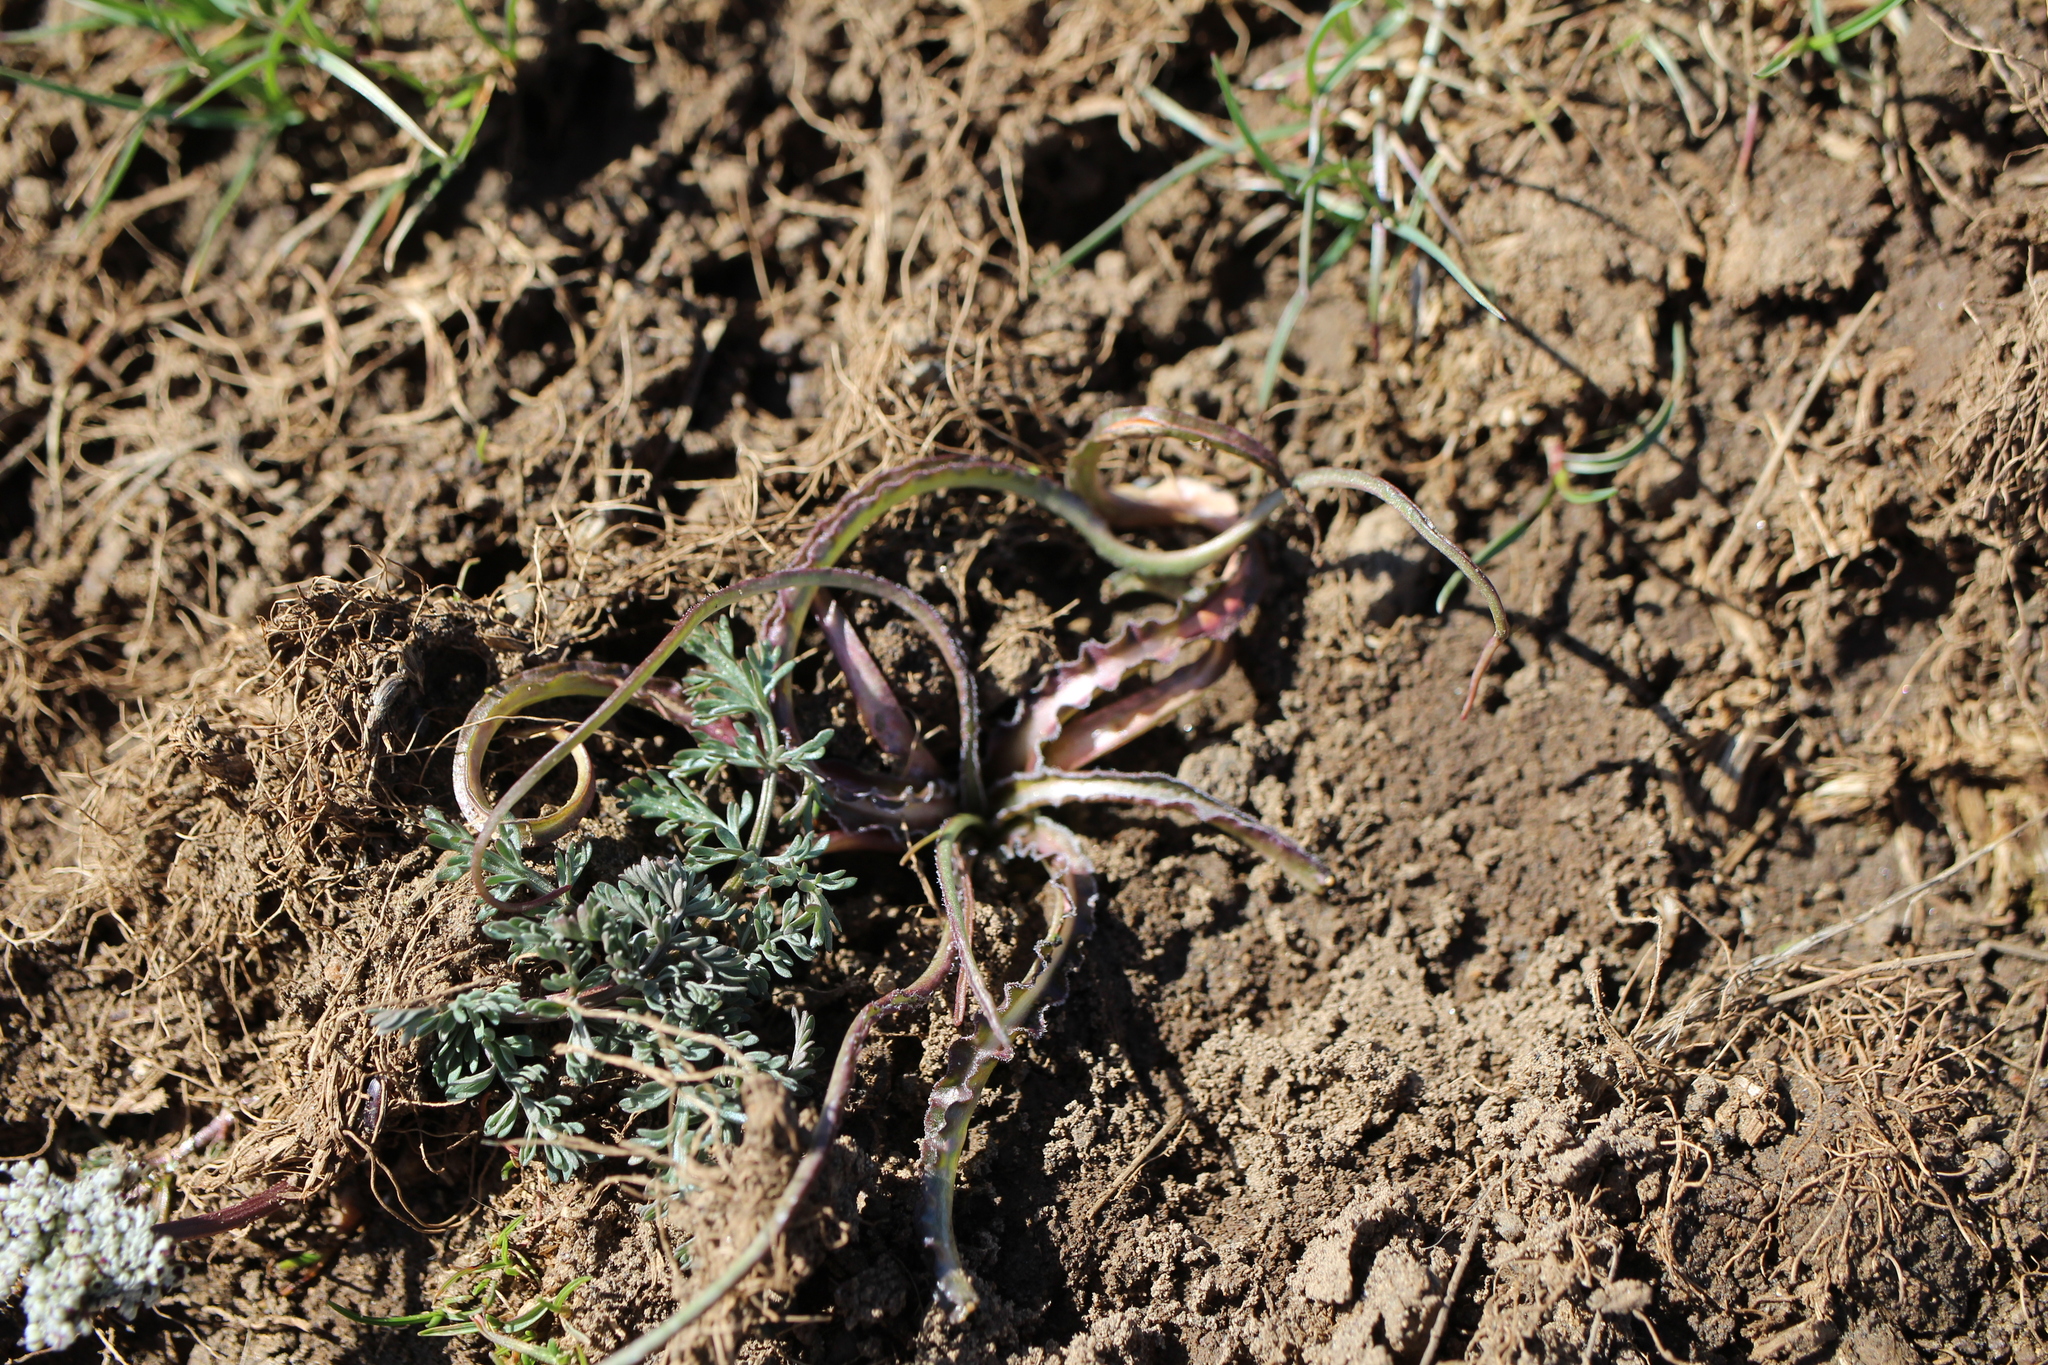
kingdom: Plantae
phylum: Tracheophyta
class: Magnoliopsida
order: Asterales
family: Asteraceae
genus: Microseris
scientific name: Microseris troximoides
